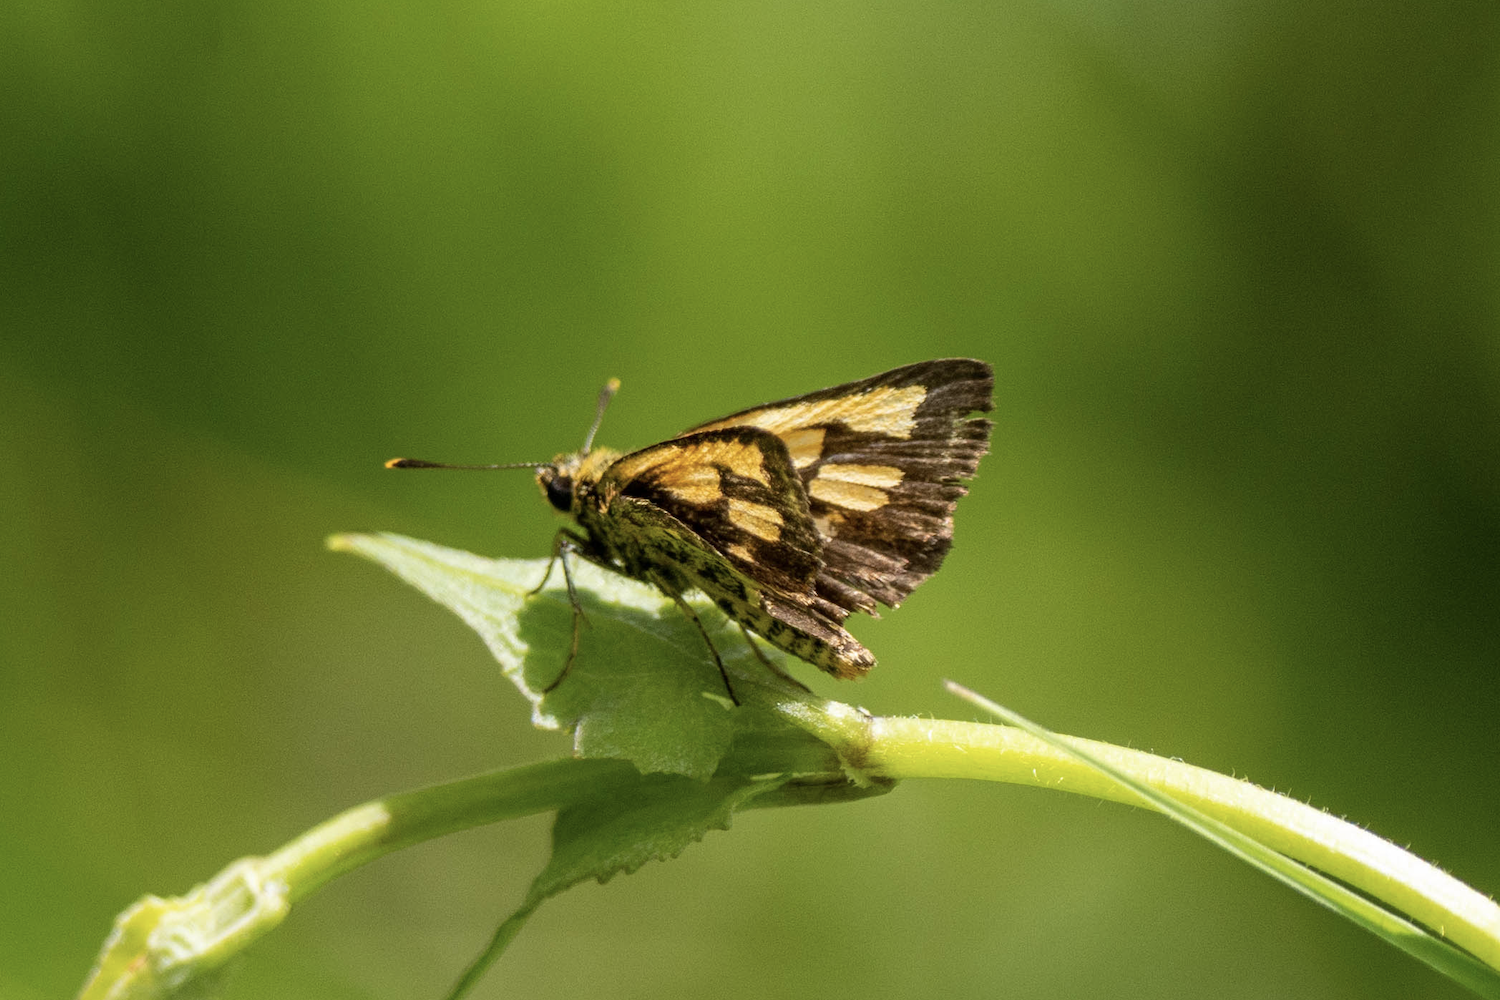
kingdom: Animalia
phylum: Arthropoda
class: Insecta
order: Lepidoptera
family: Hesperiidae
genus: Ampittia
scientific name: Ampittia dioscorides
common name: Common bush hopper
